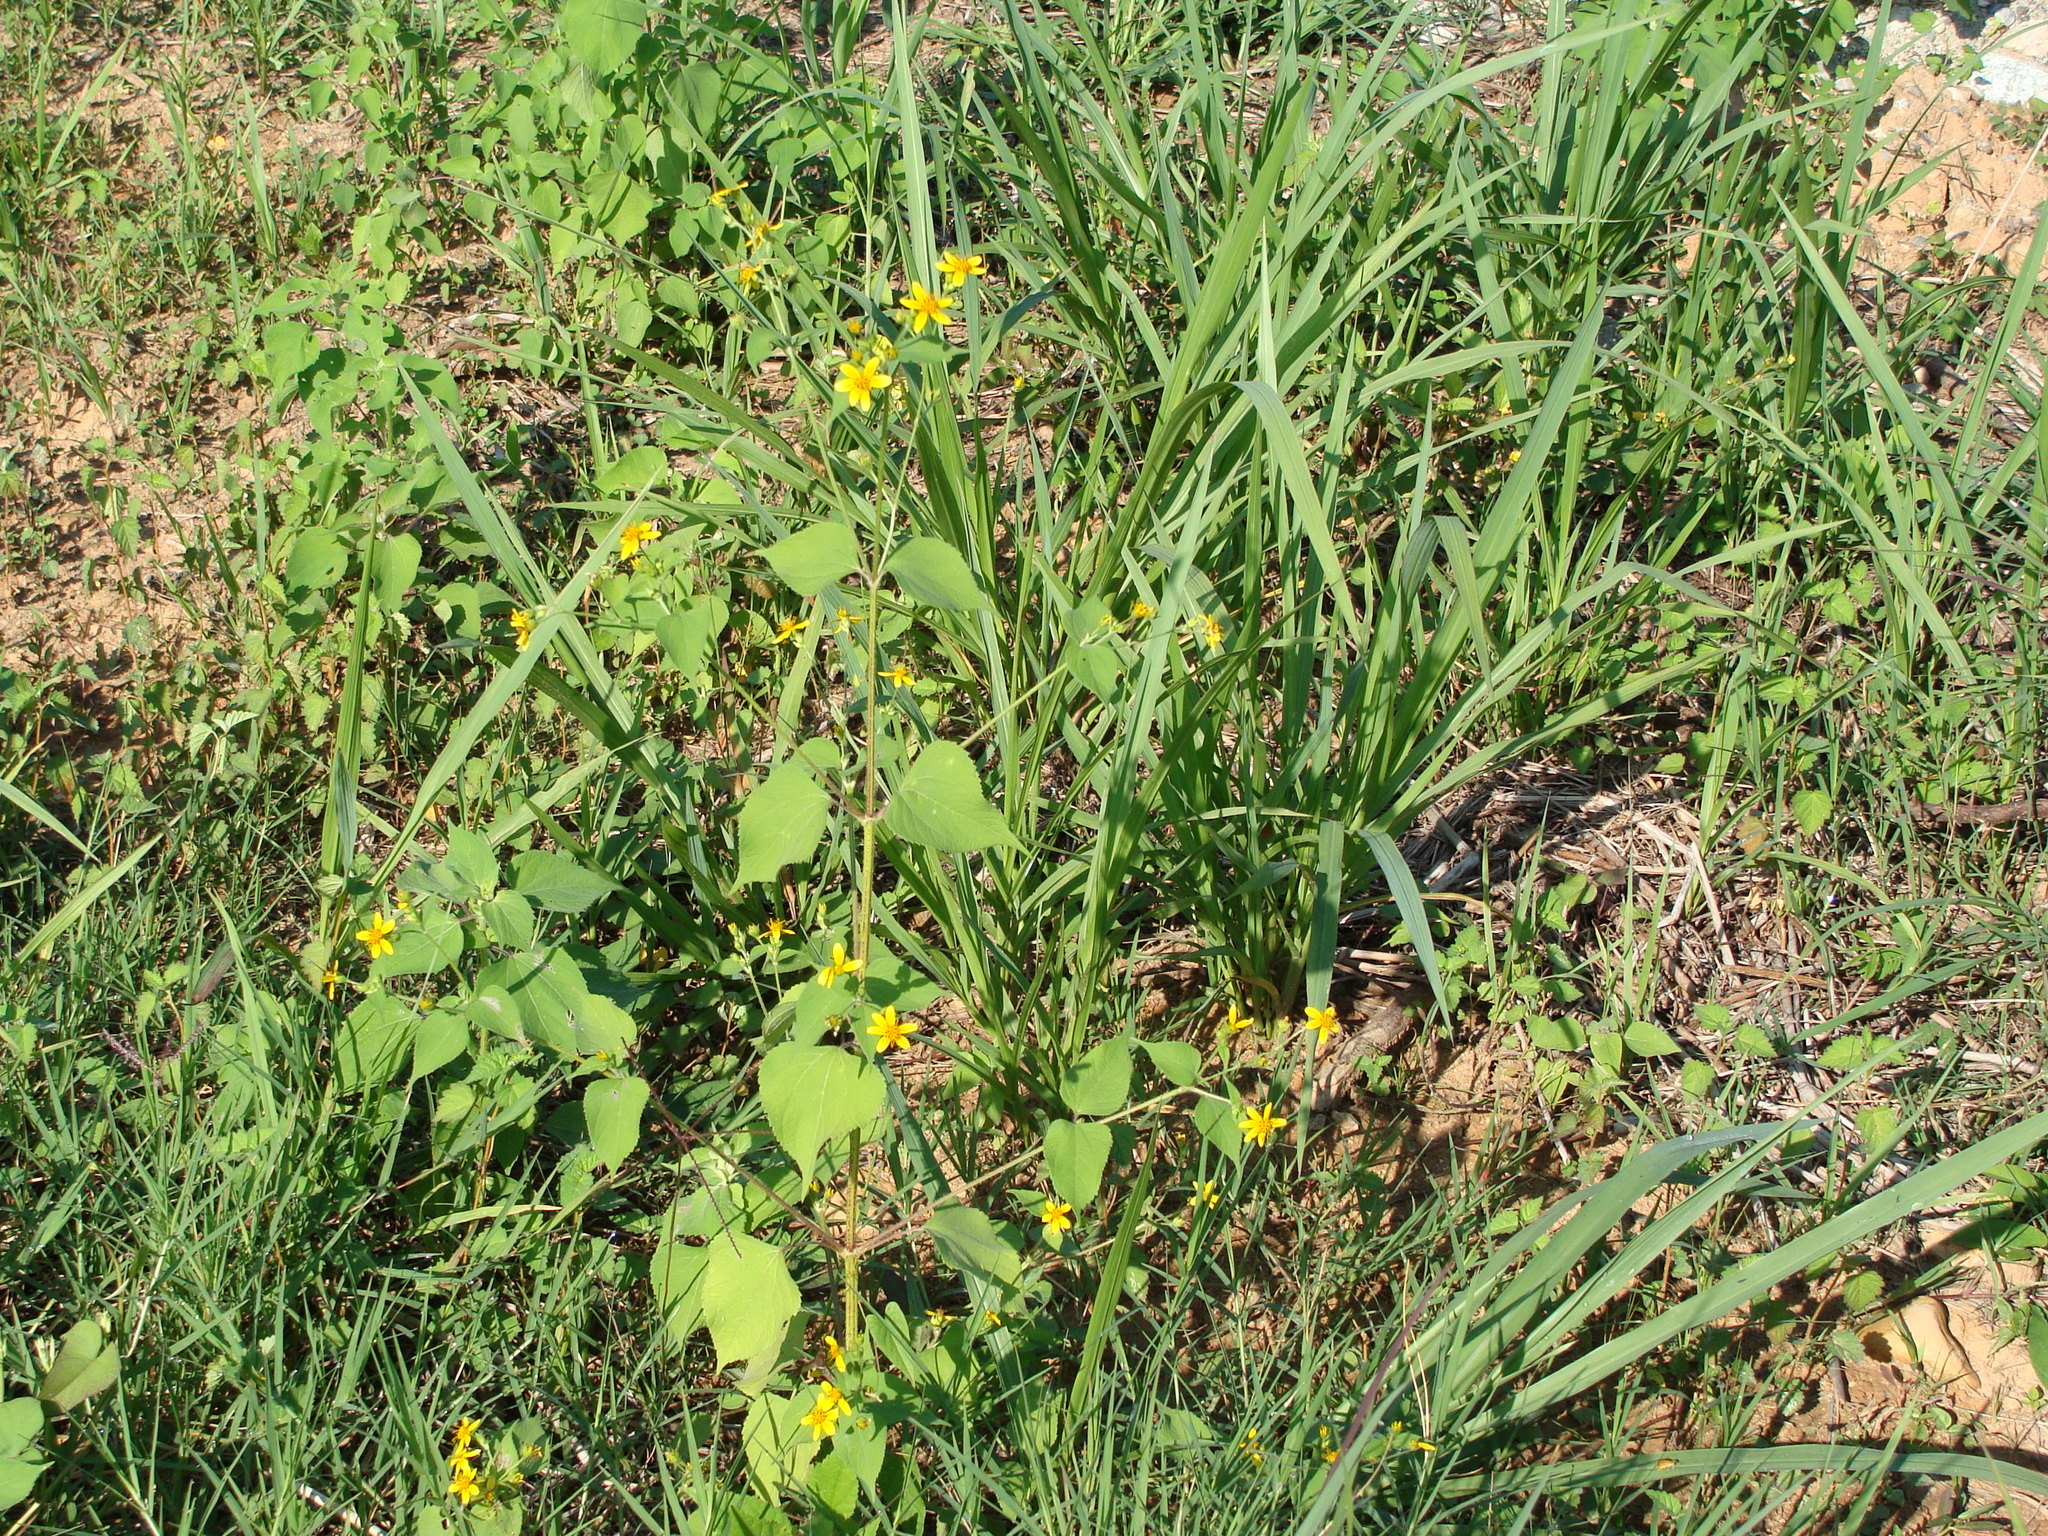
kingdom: Plantae
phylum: Tracheophyta
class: Magnoliopsida
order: Asterales
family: Asteraceae
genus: Baltimora
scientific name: Baltimora recta
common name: Beautyhead
